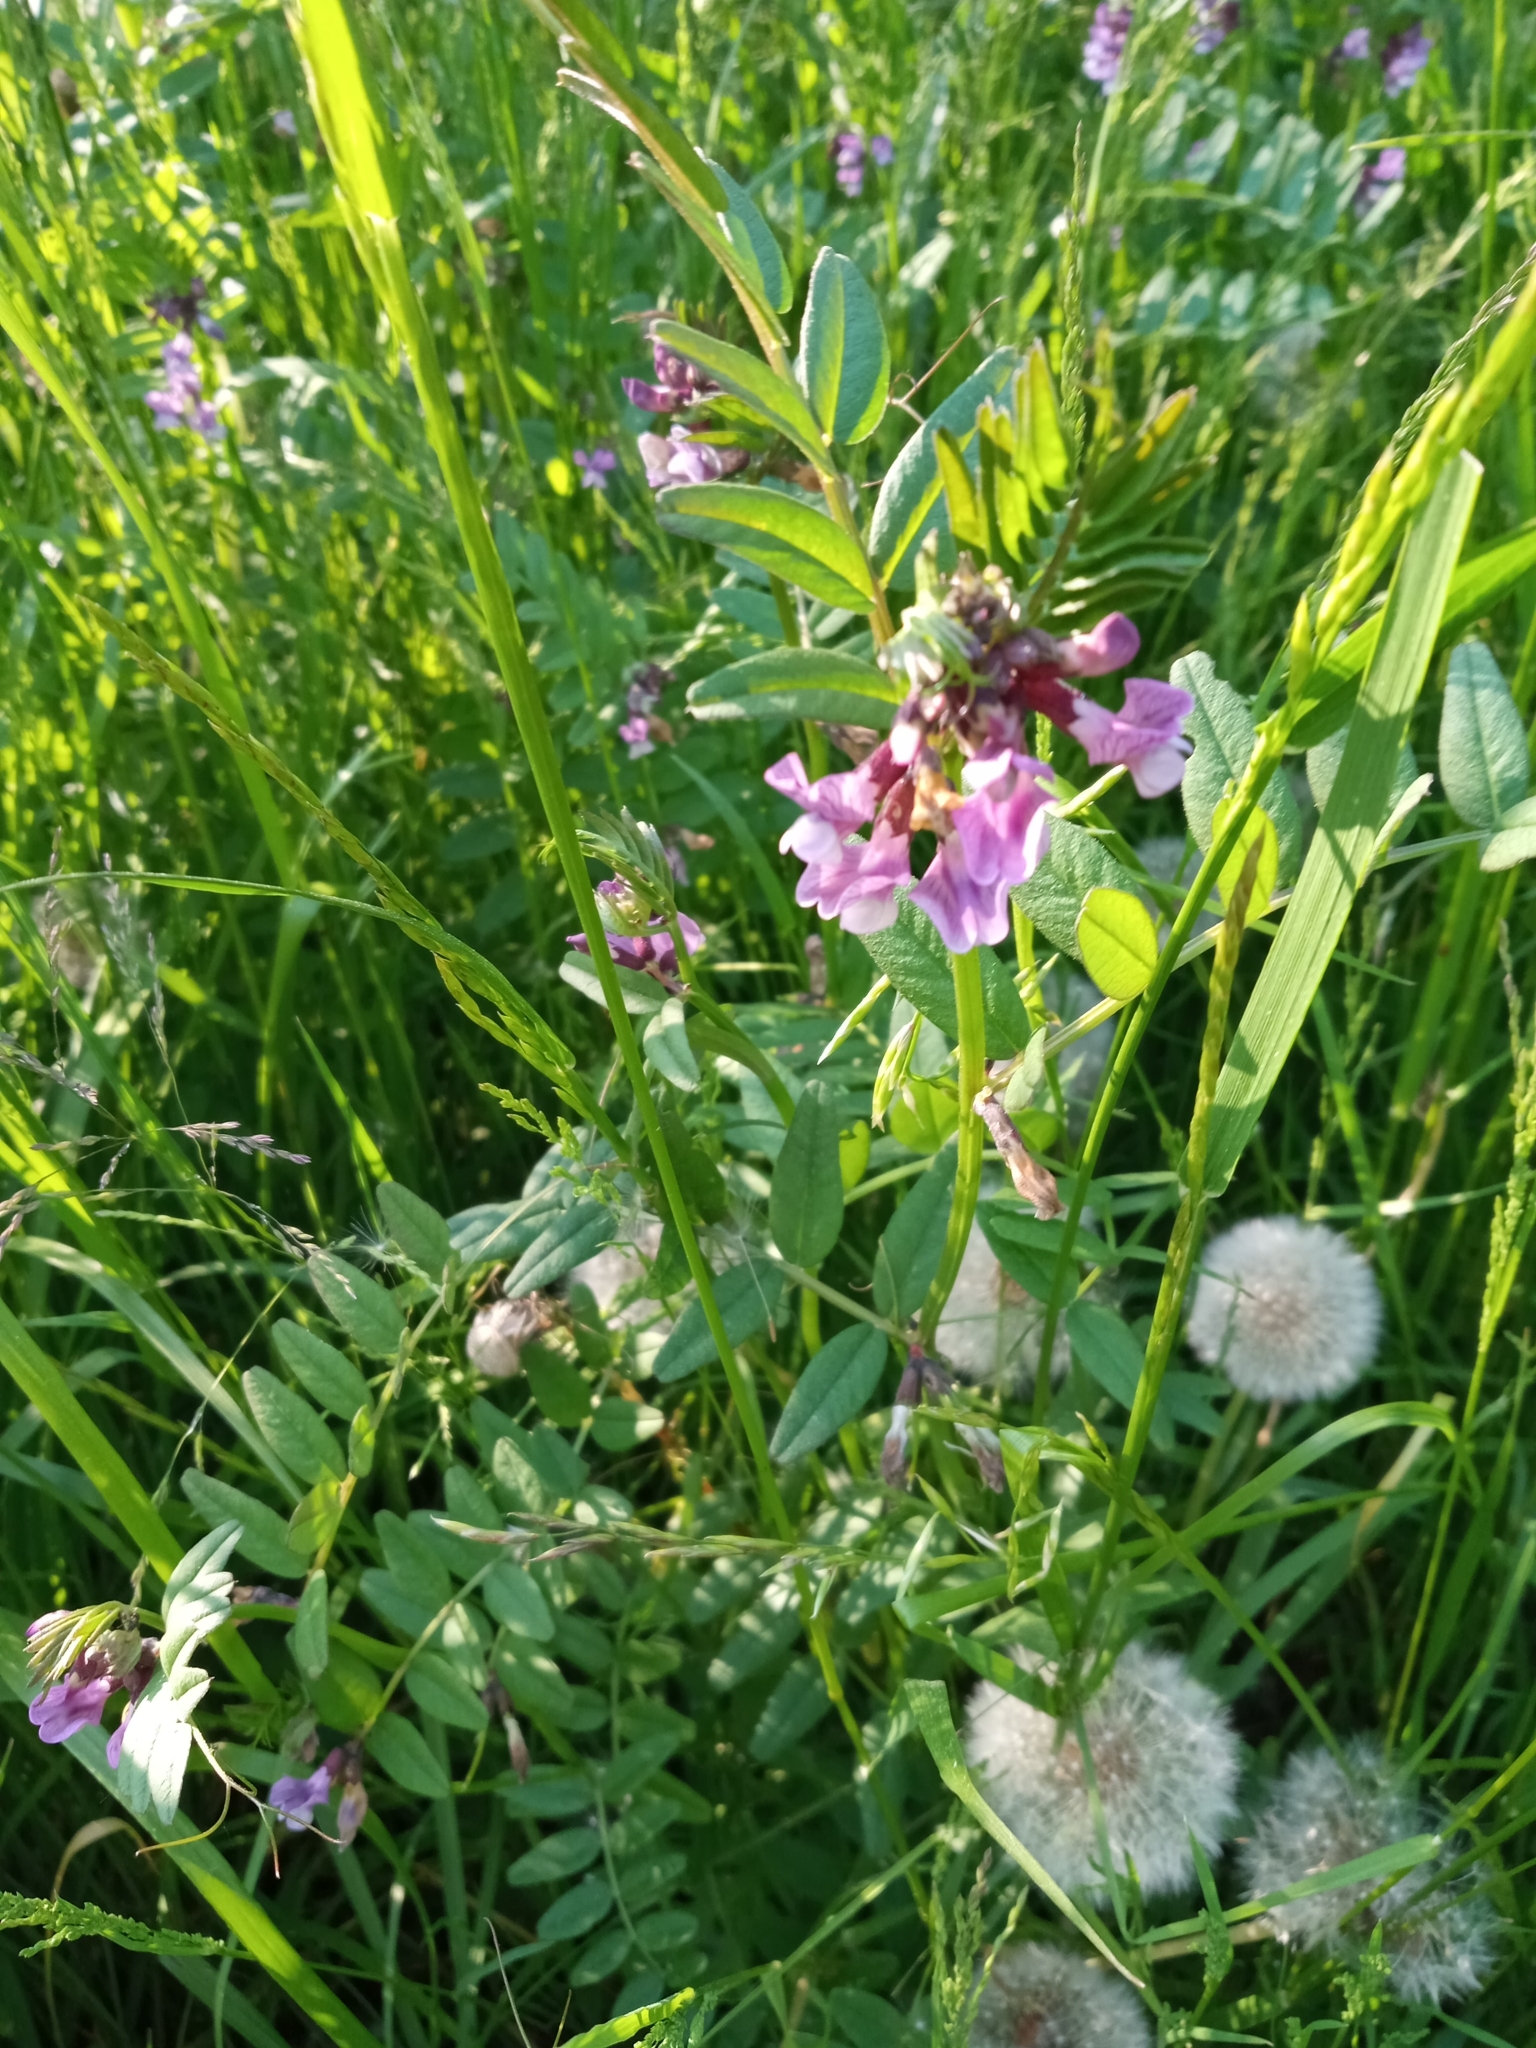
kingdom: Plantae
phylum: Tracheophyta
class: Magnoliopsida
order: Fabales
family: Fabaceae
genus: Vicia
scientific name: Vicia sepium
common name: Bush vetch
